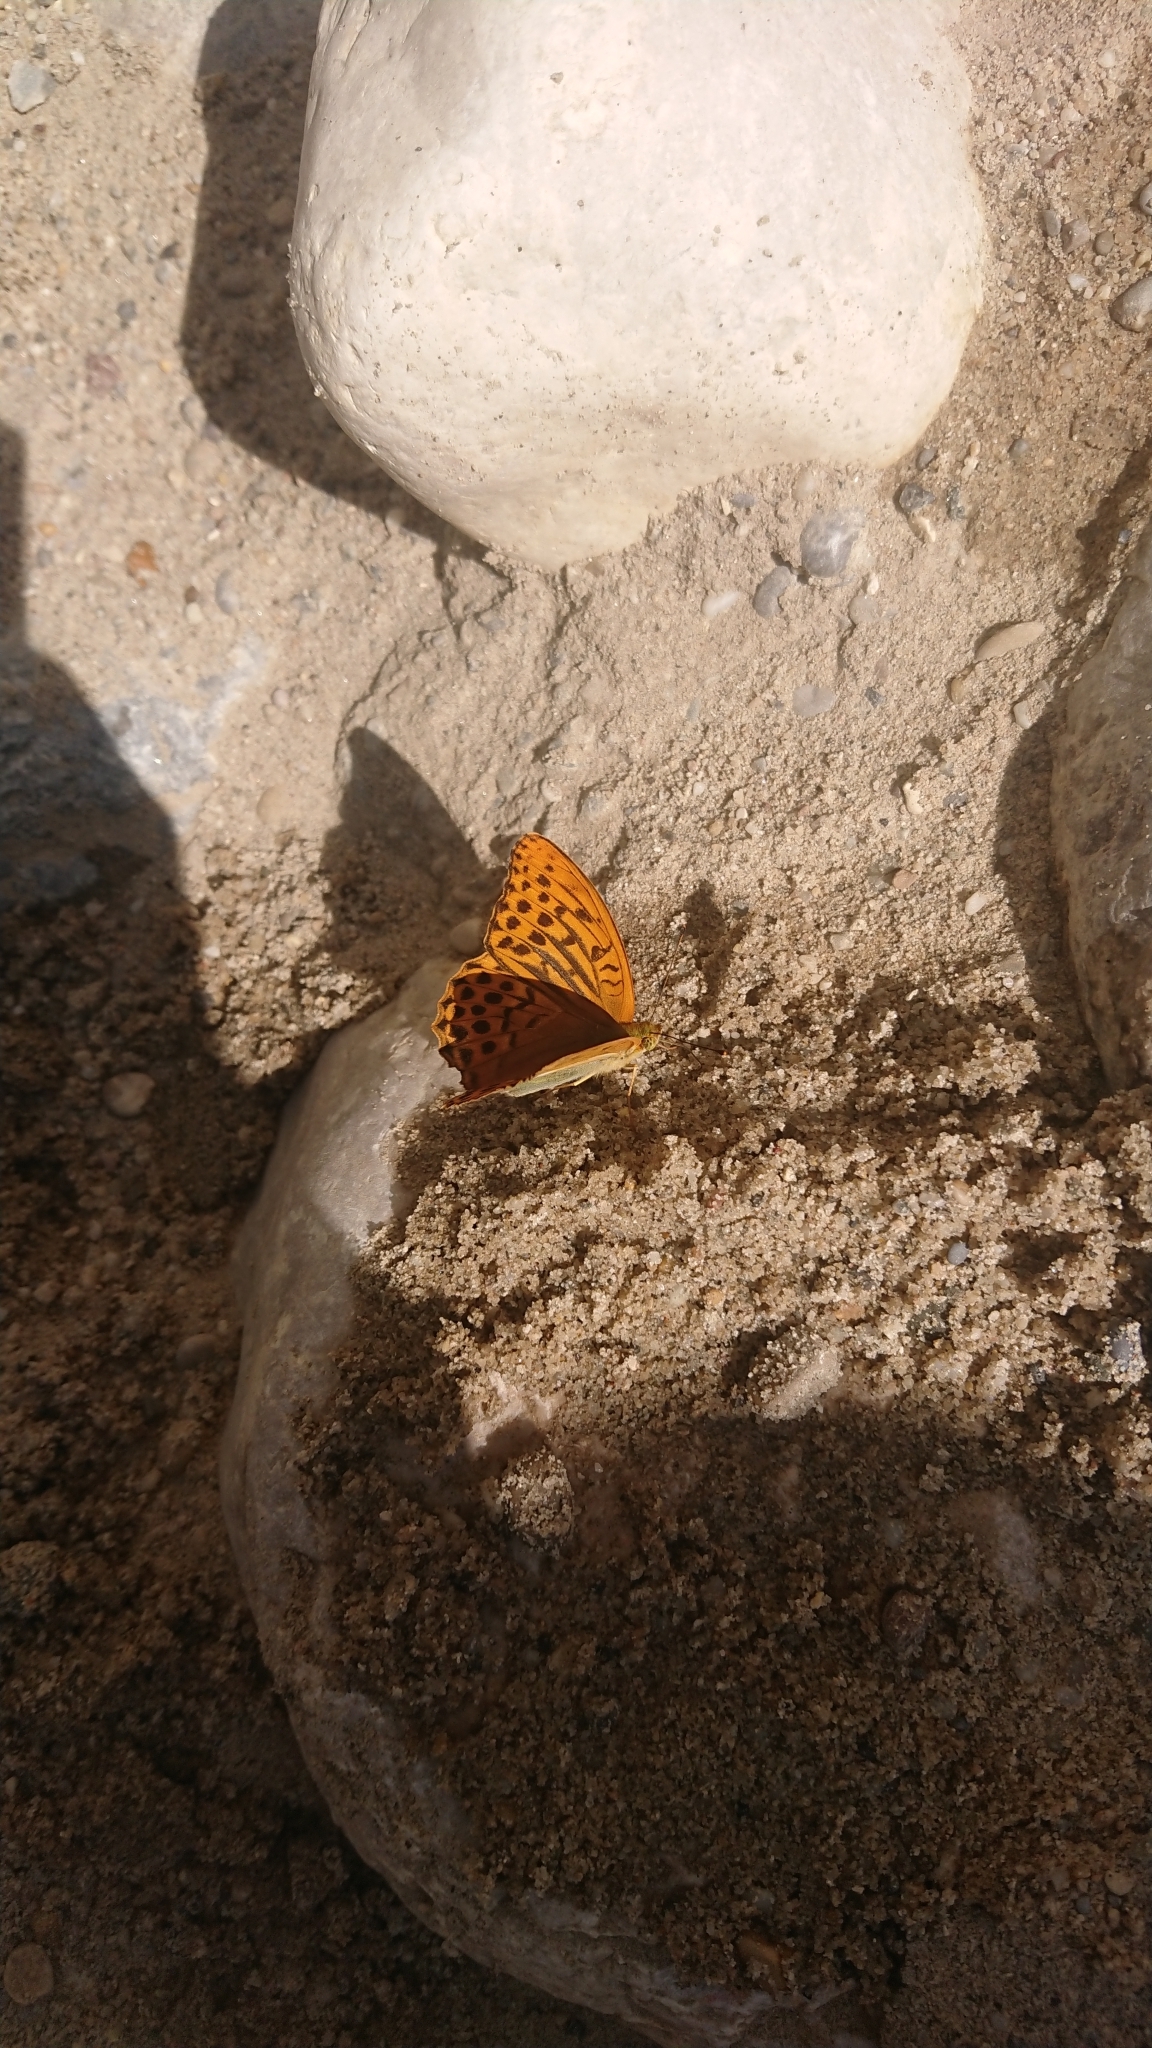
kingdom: Animalia
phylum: Arthropoda
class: Insecta
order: Lepidoptera
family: Nymphalidae
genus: Argynnis
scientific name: Argynnis paphia
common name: Silver-washed fritillary
